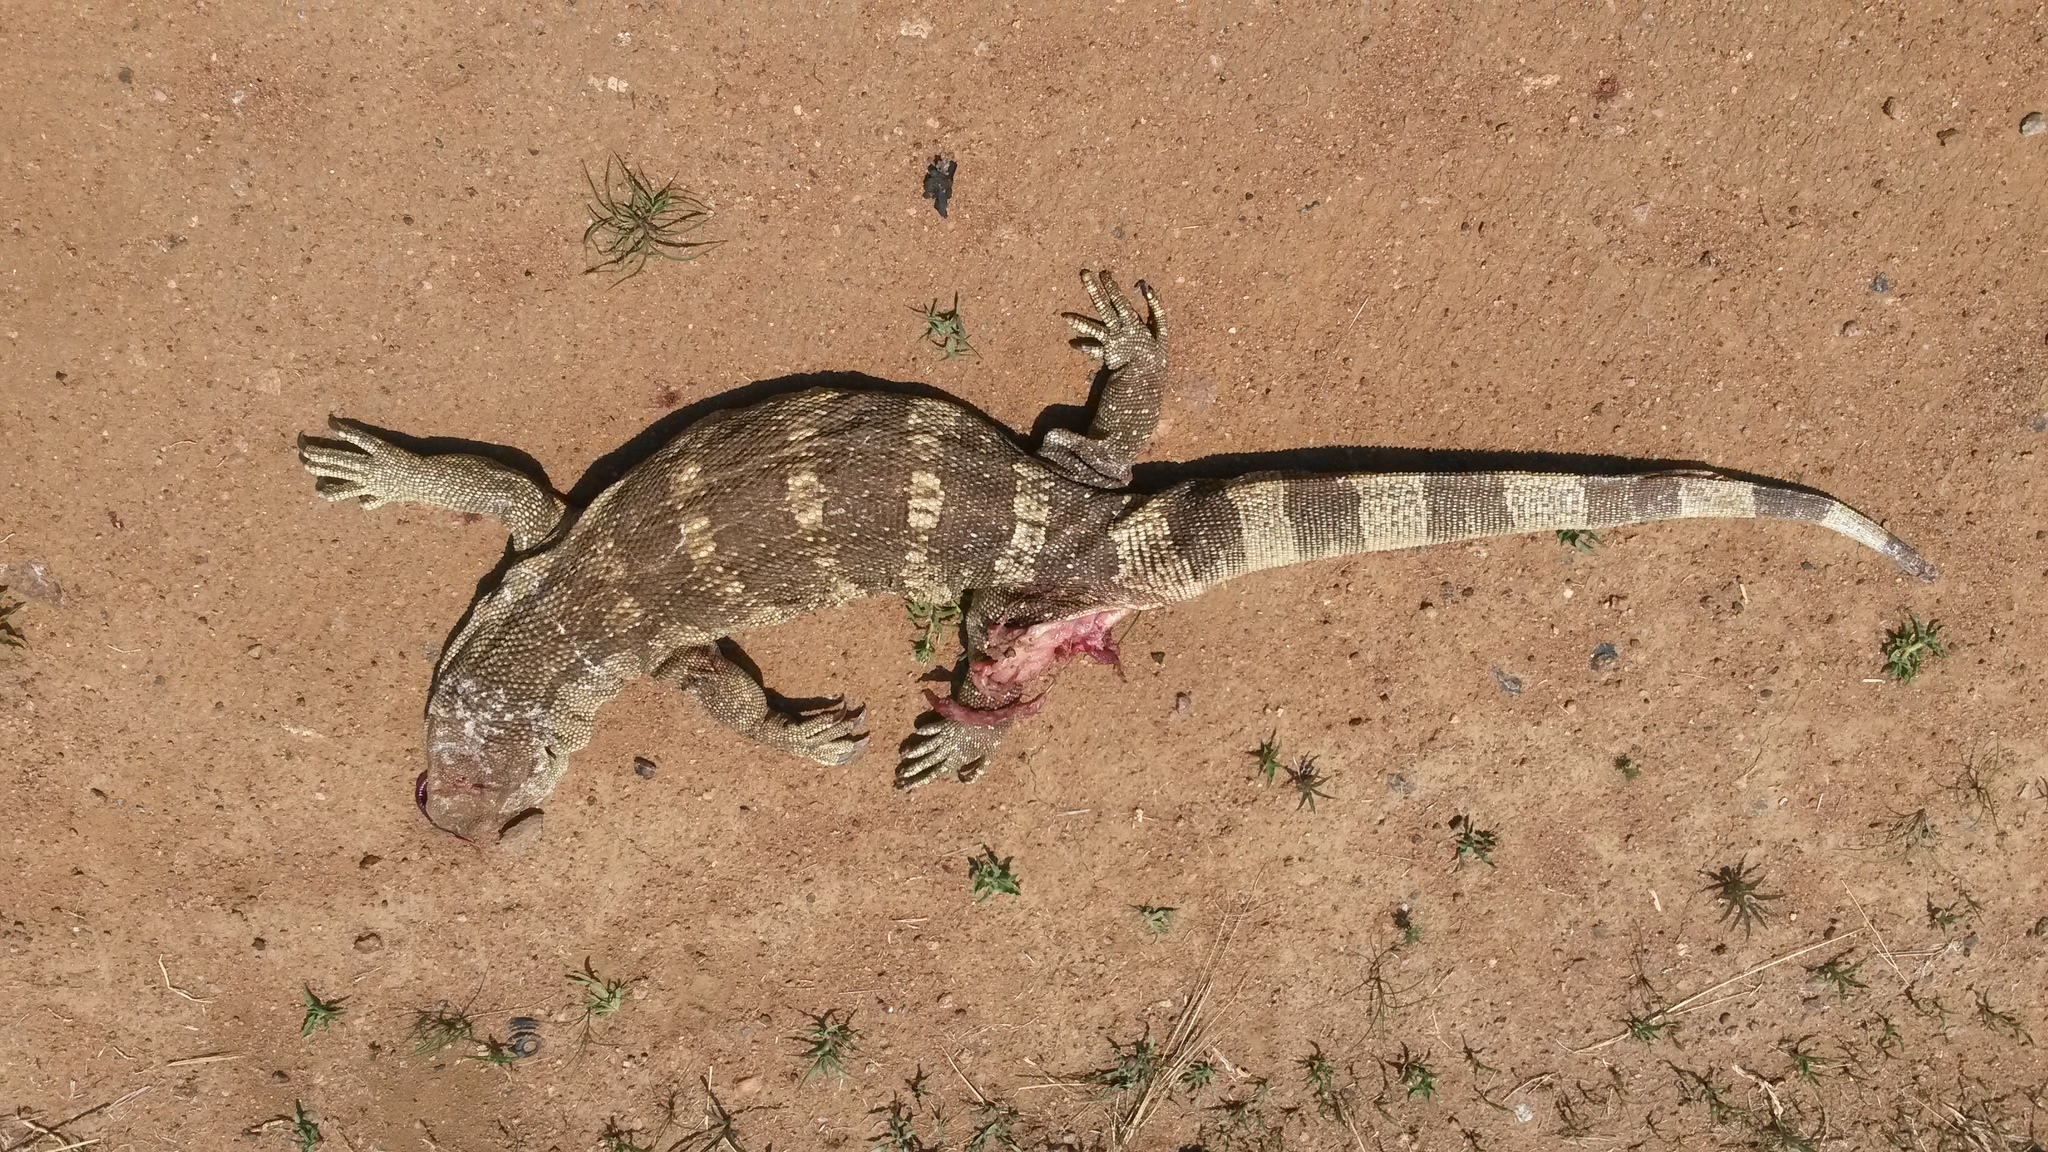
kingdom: Animalia
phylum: Chordata
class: Squamata
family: Varanidae
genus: Varanus
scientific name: Varanus albigularis
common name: White-throated monitor
